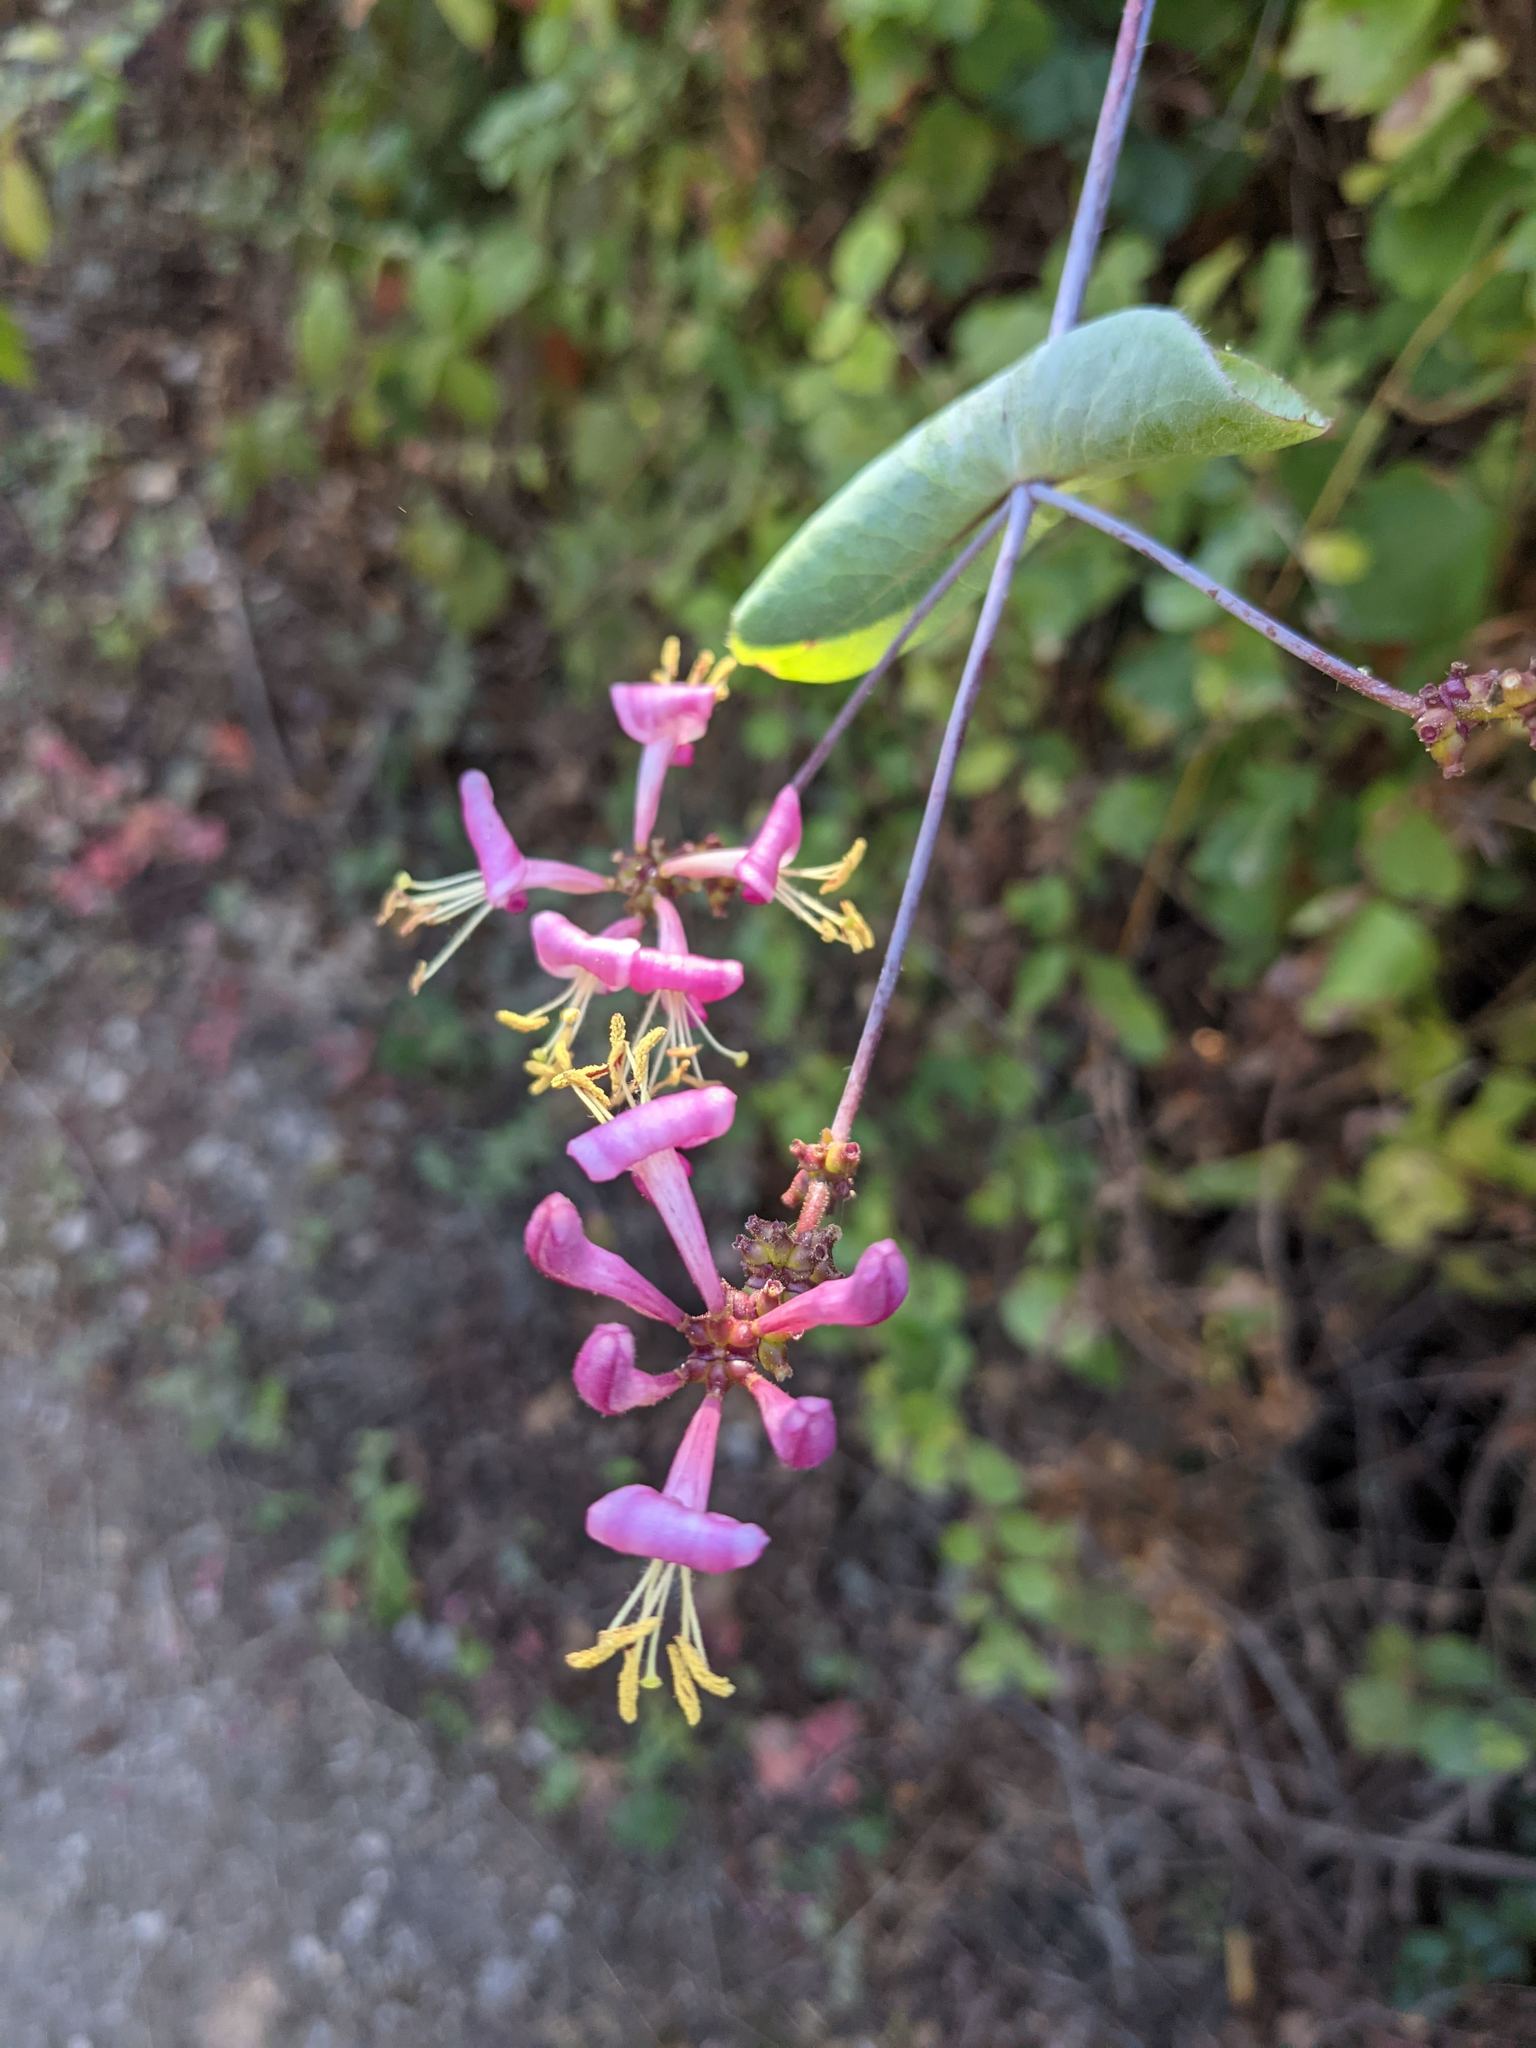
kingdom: Plantae
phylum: Tracheophyta
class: Magnoliopsida
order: Dipsacales
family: Caprifoliaceae
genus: Lonicera
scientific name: Lonicera hispidula
